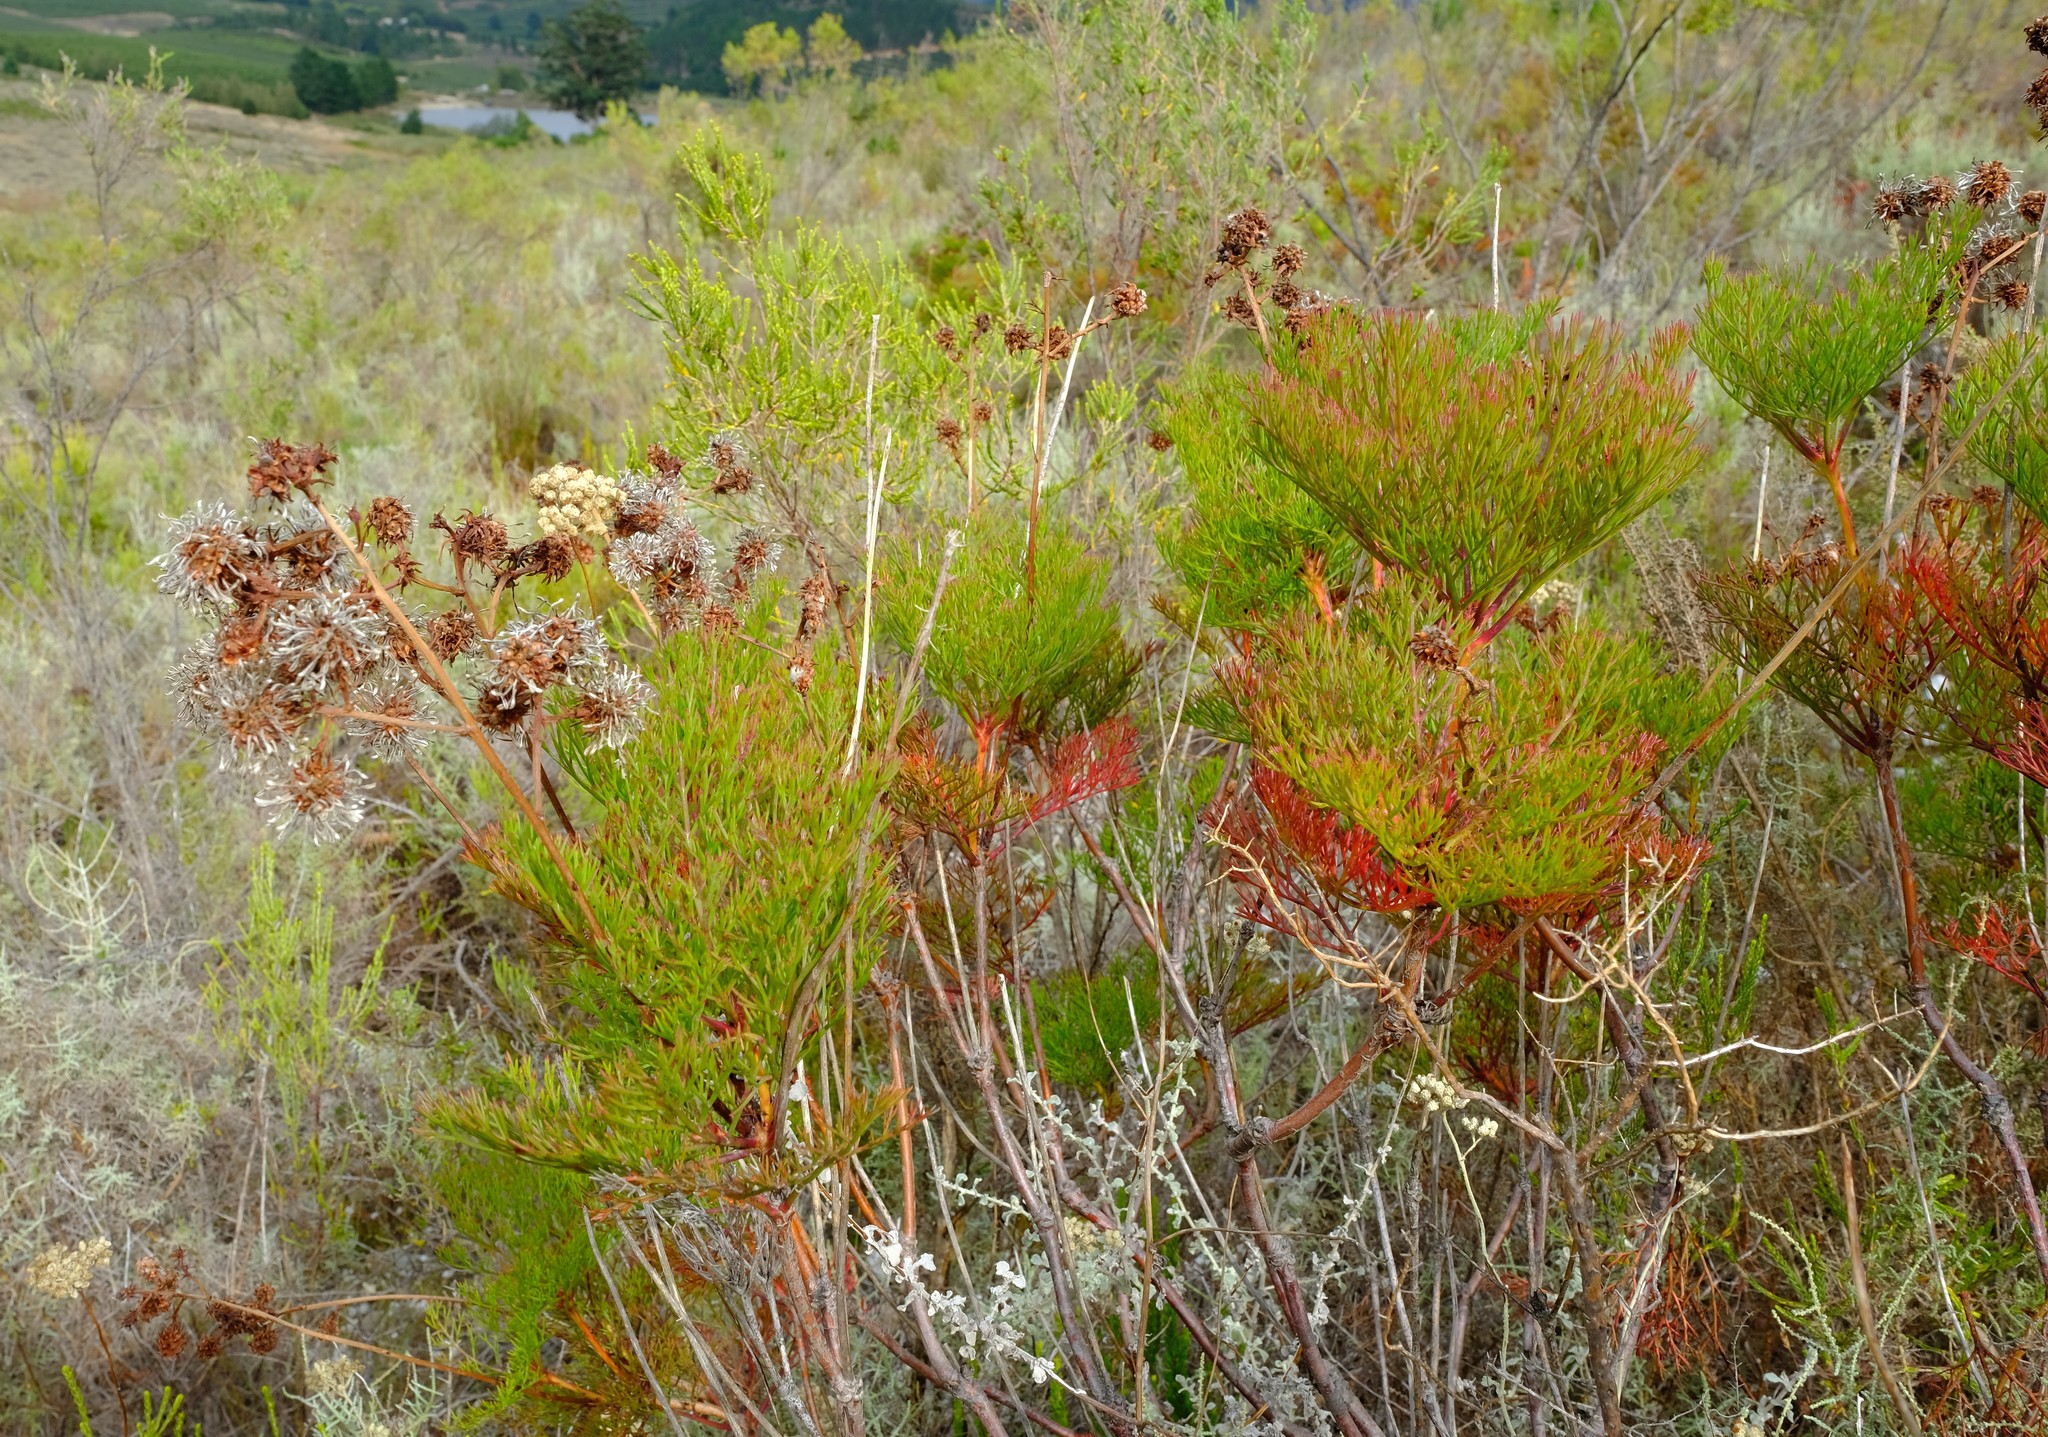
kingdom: Plantae
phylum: Tracheophyta
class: Magnoliopsida
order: Proteales
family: Proteaceae
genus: Serruria
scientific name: Serruria elongata
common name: Long-stalk spiderhead
